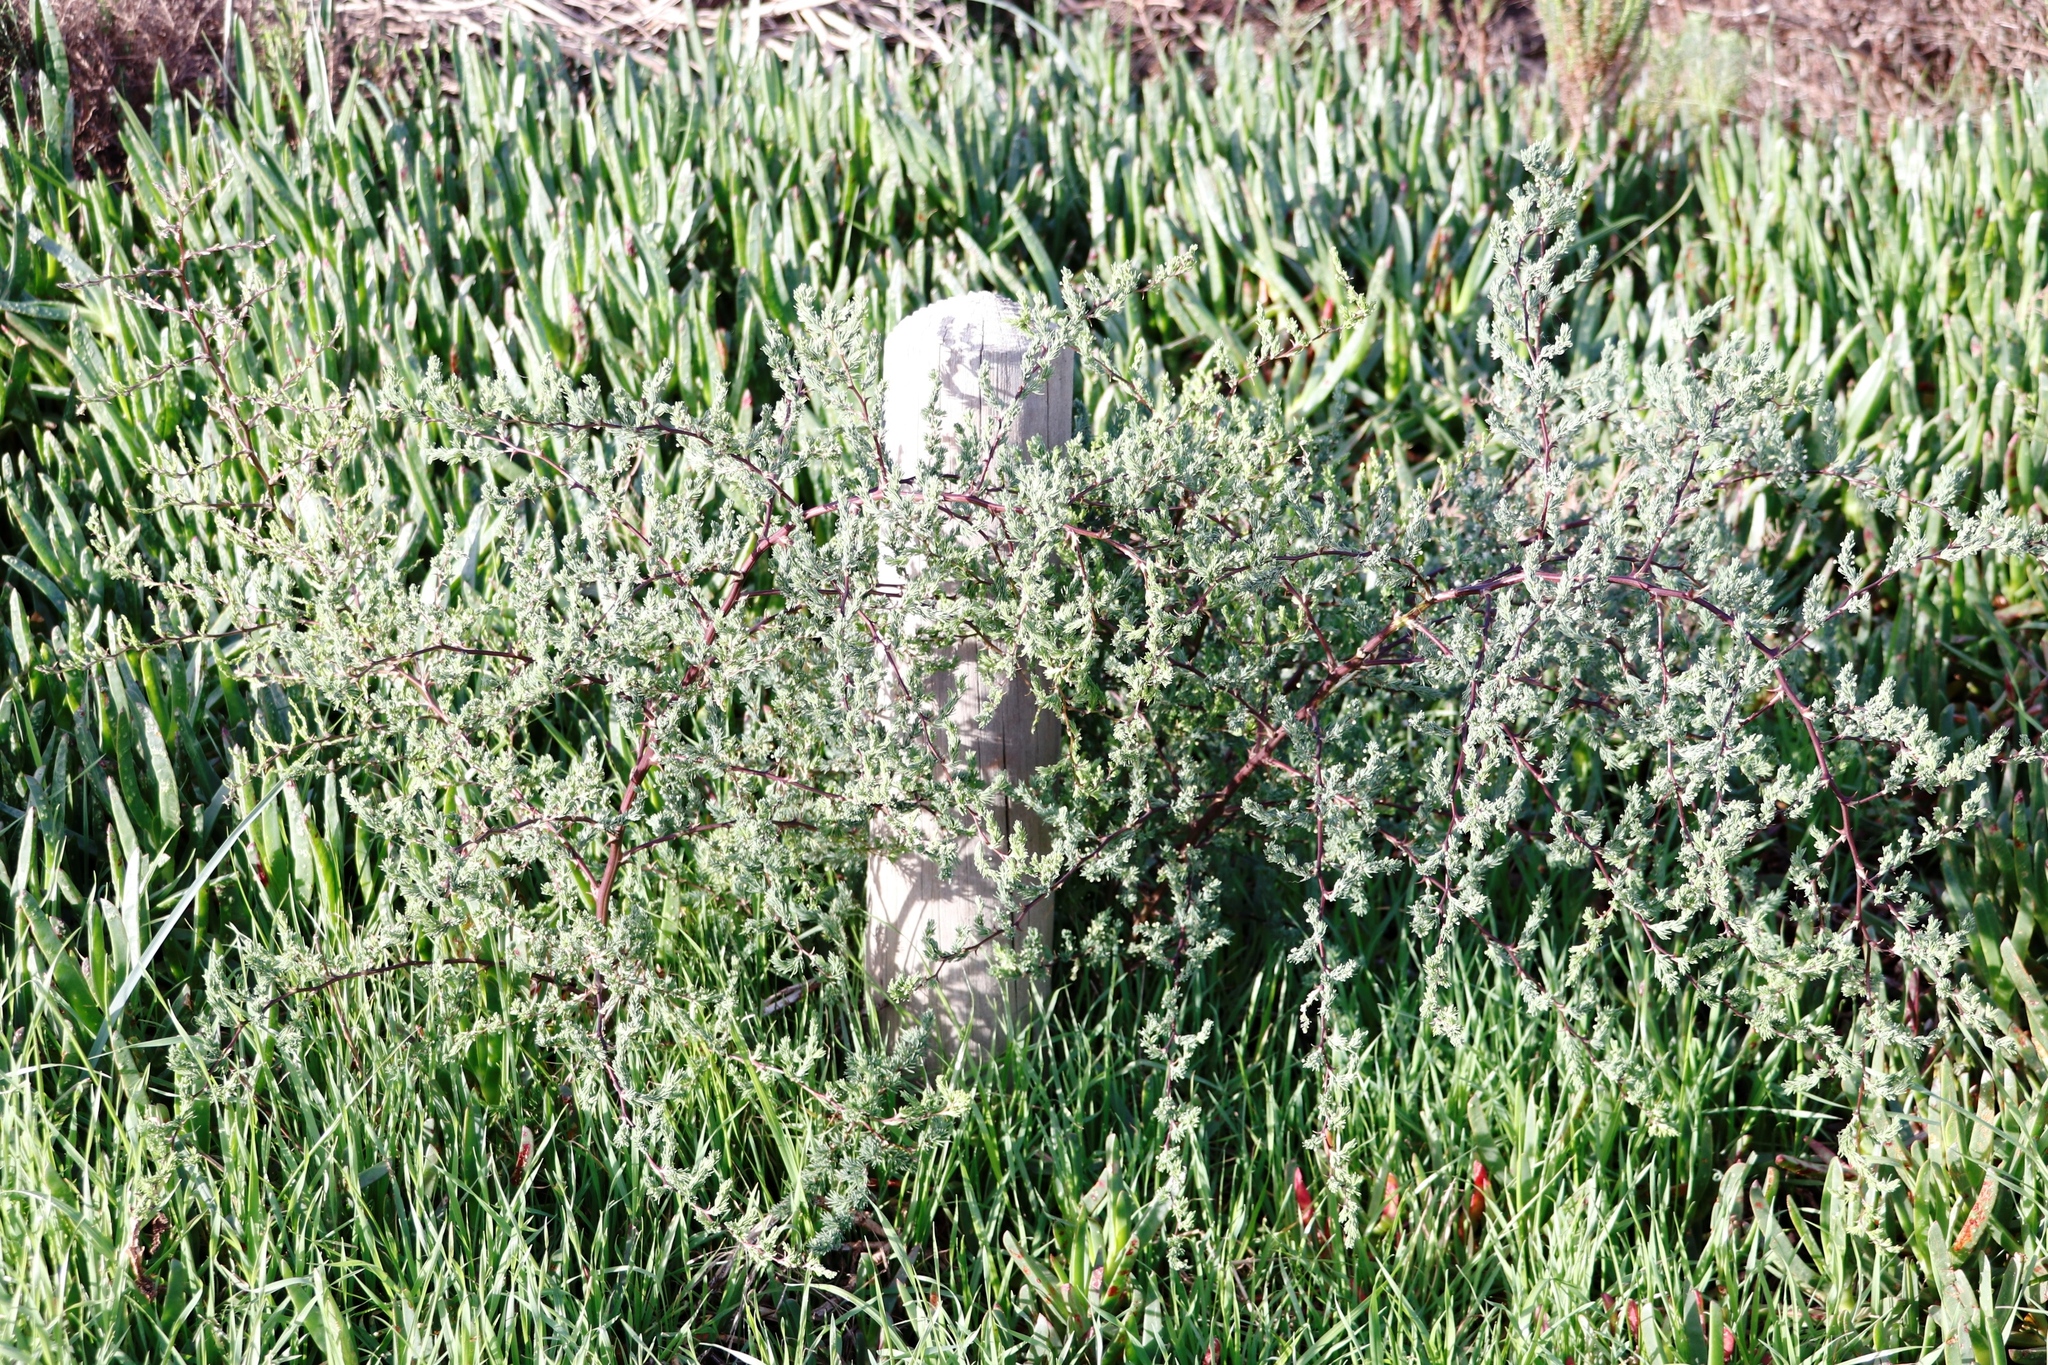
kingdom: Plantae
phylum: Tracheophyta
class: Liliopsida
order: Asparagales
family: Asparagaceae
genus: Asparagus
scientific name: Asparagus rubicundus
